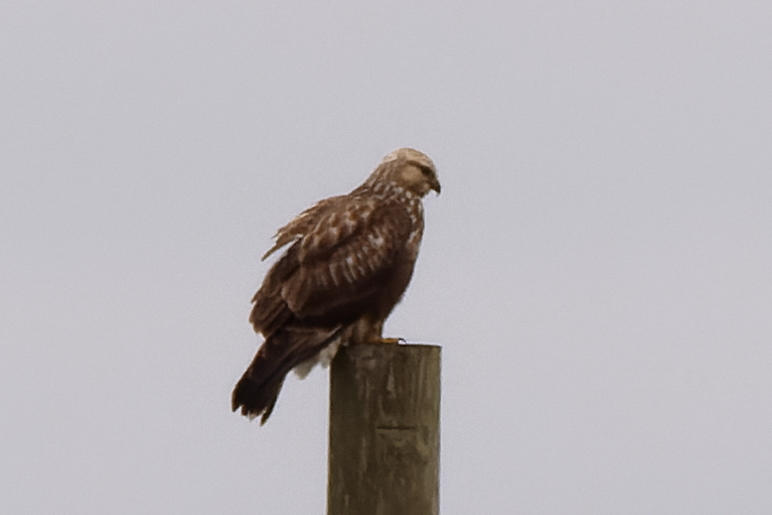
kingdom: Animalia
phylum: Chordata
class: Aves
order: Accipitriformes
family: Accipitridae
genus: Buteo
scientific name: Buteo lagopus
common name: Rough-legged buzzard
